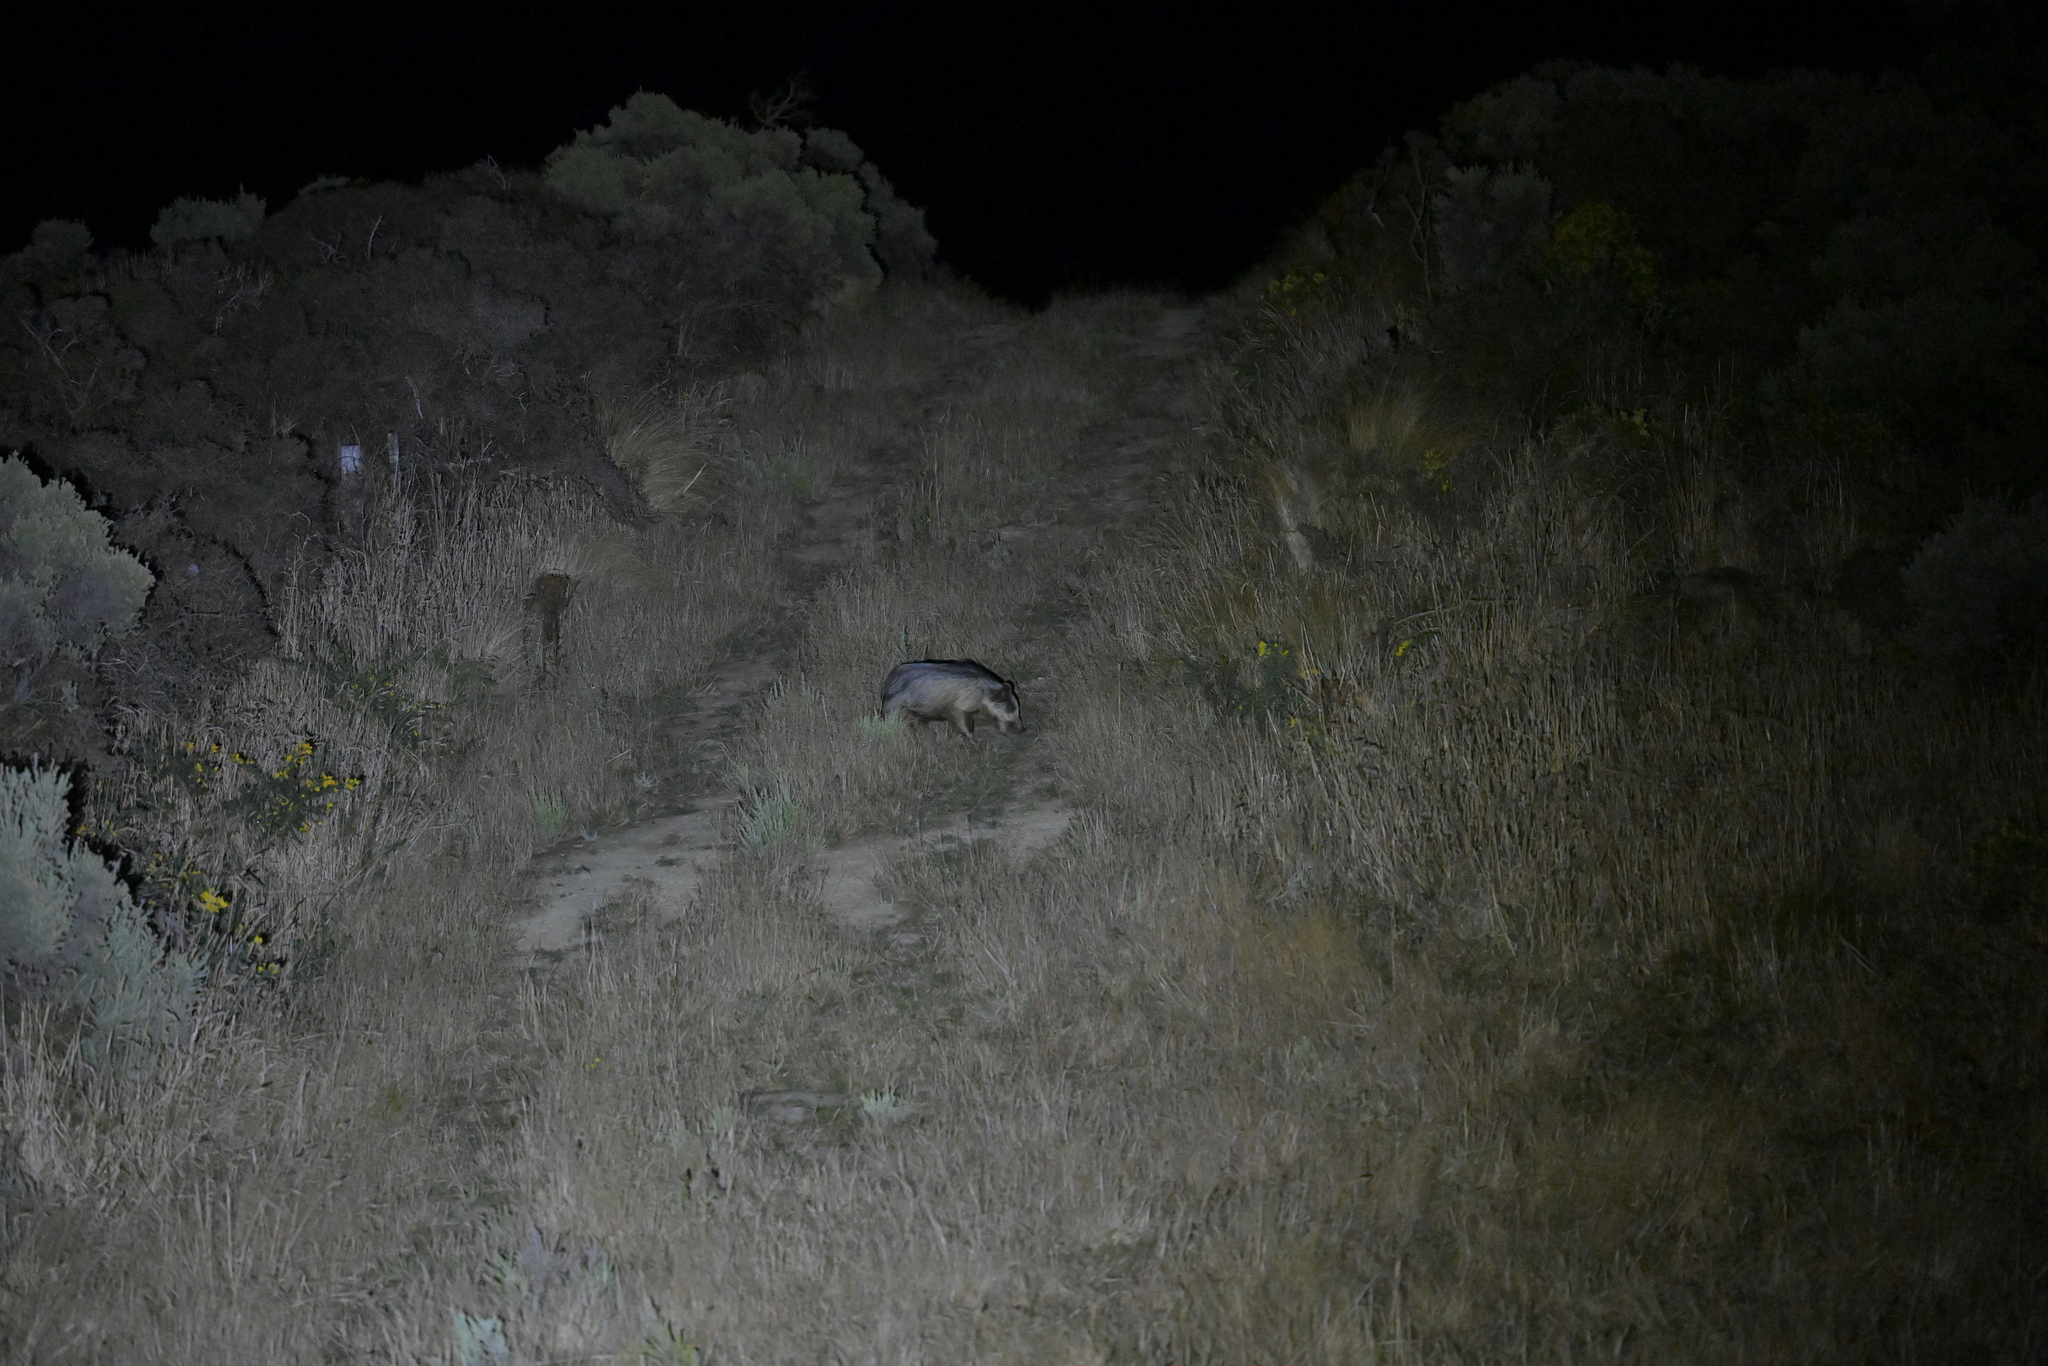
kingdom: Animalia
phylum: Chordata
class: Mammalia
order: Artiodactyla
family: Suidae
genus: Sus
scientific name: Sus scrofa
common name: Wild boar
